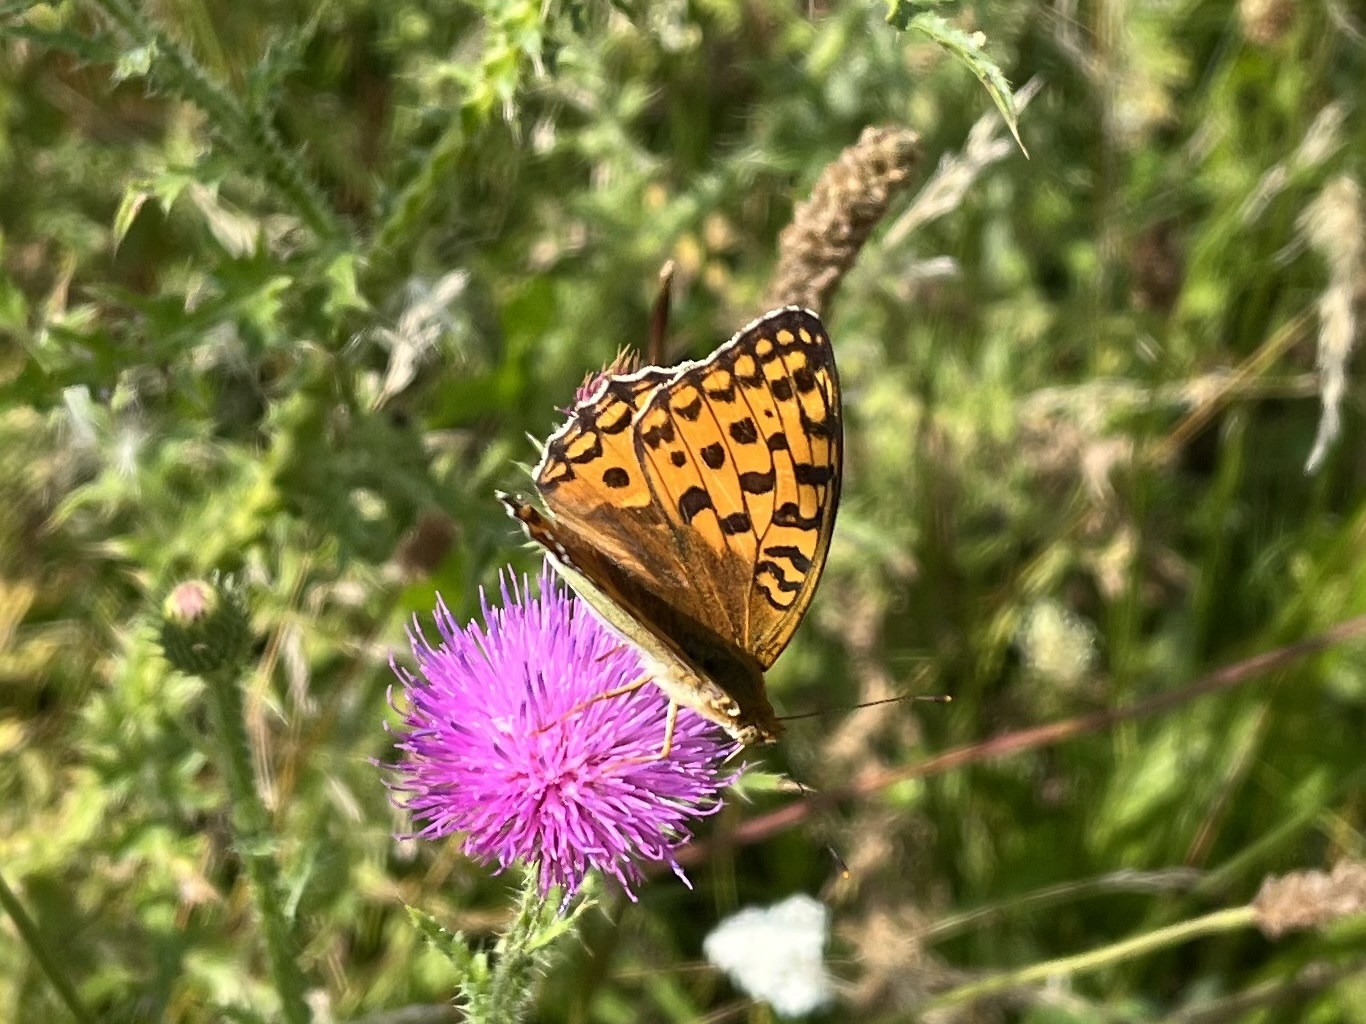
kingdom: Animalia
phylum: Arthropoda
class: Insecta
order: Lepidoptera
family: Nymphalidae
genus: Fabriciana
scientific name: Fabriciana adippe
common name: High brown fritillary
